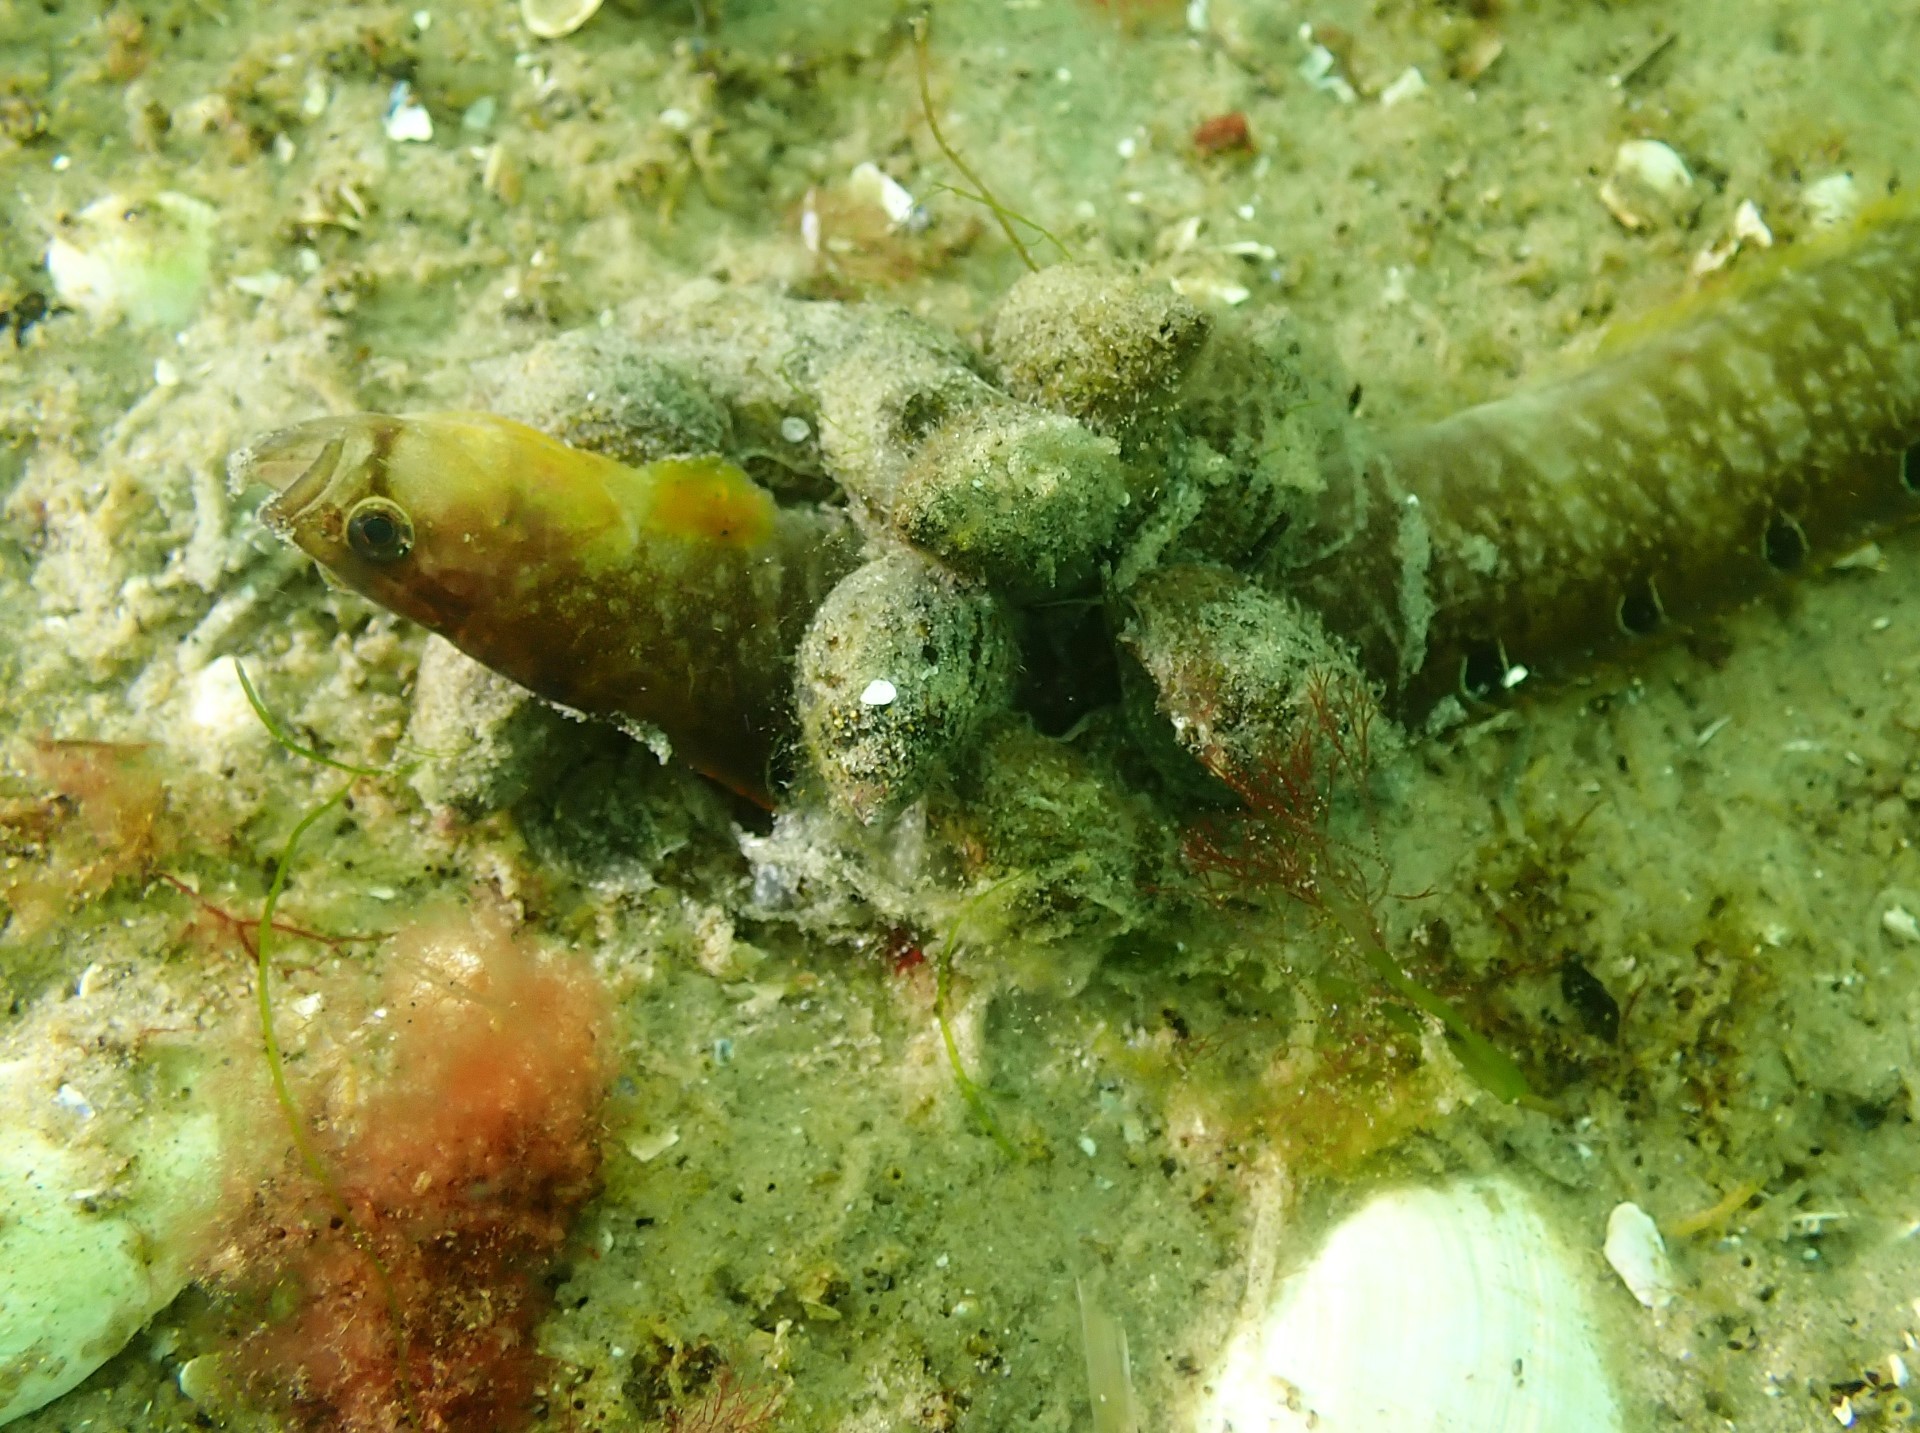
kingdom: Animalia
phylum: Chordata
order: Perciformes
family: Pholidae
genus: Pholis
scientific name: Pholis gunnellus
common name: Butterfish
